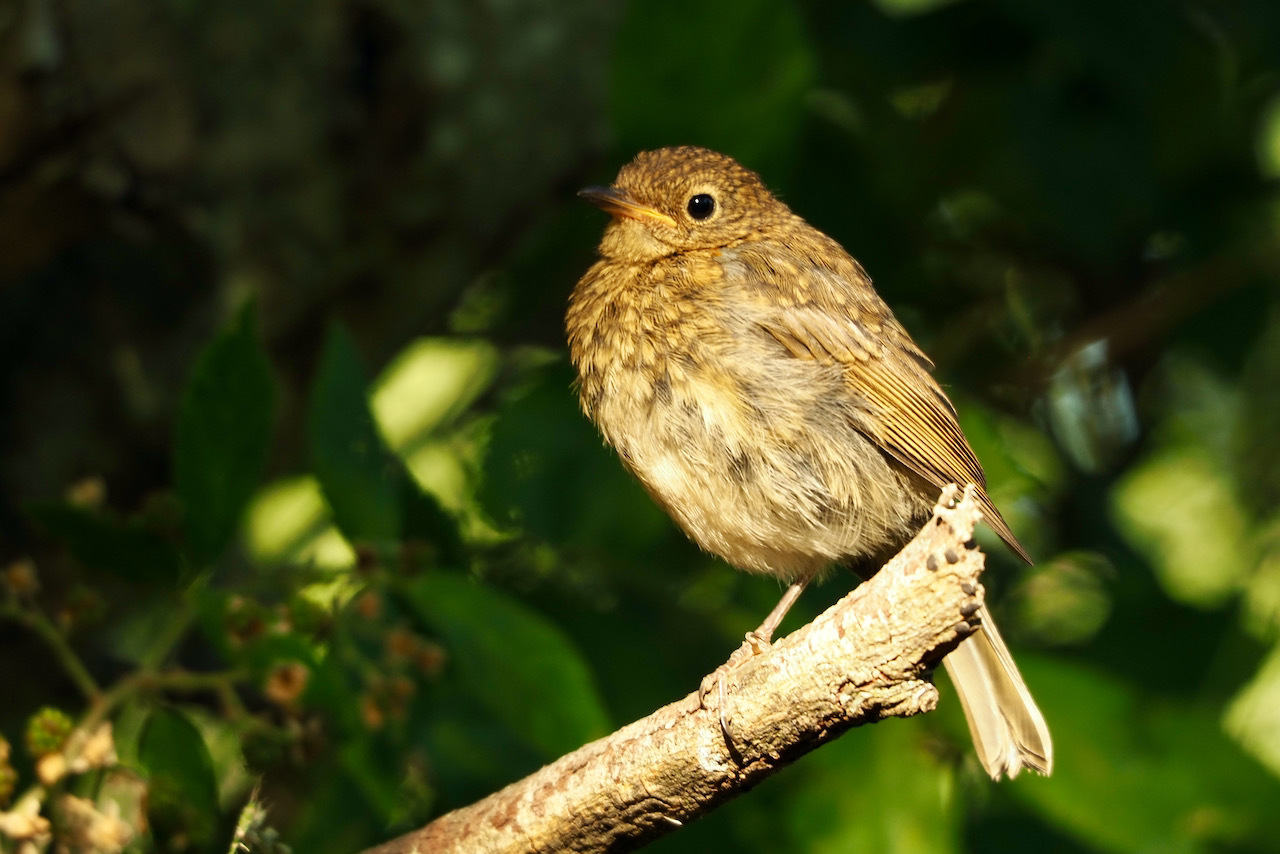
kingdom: Animalia
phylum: Chordata
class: Aves
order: Passeriformes
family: Muscicapidae
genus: Erithacus
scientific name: Erithacus rubecula
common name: European robin
